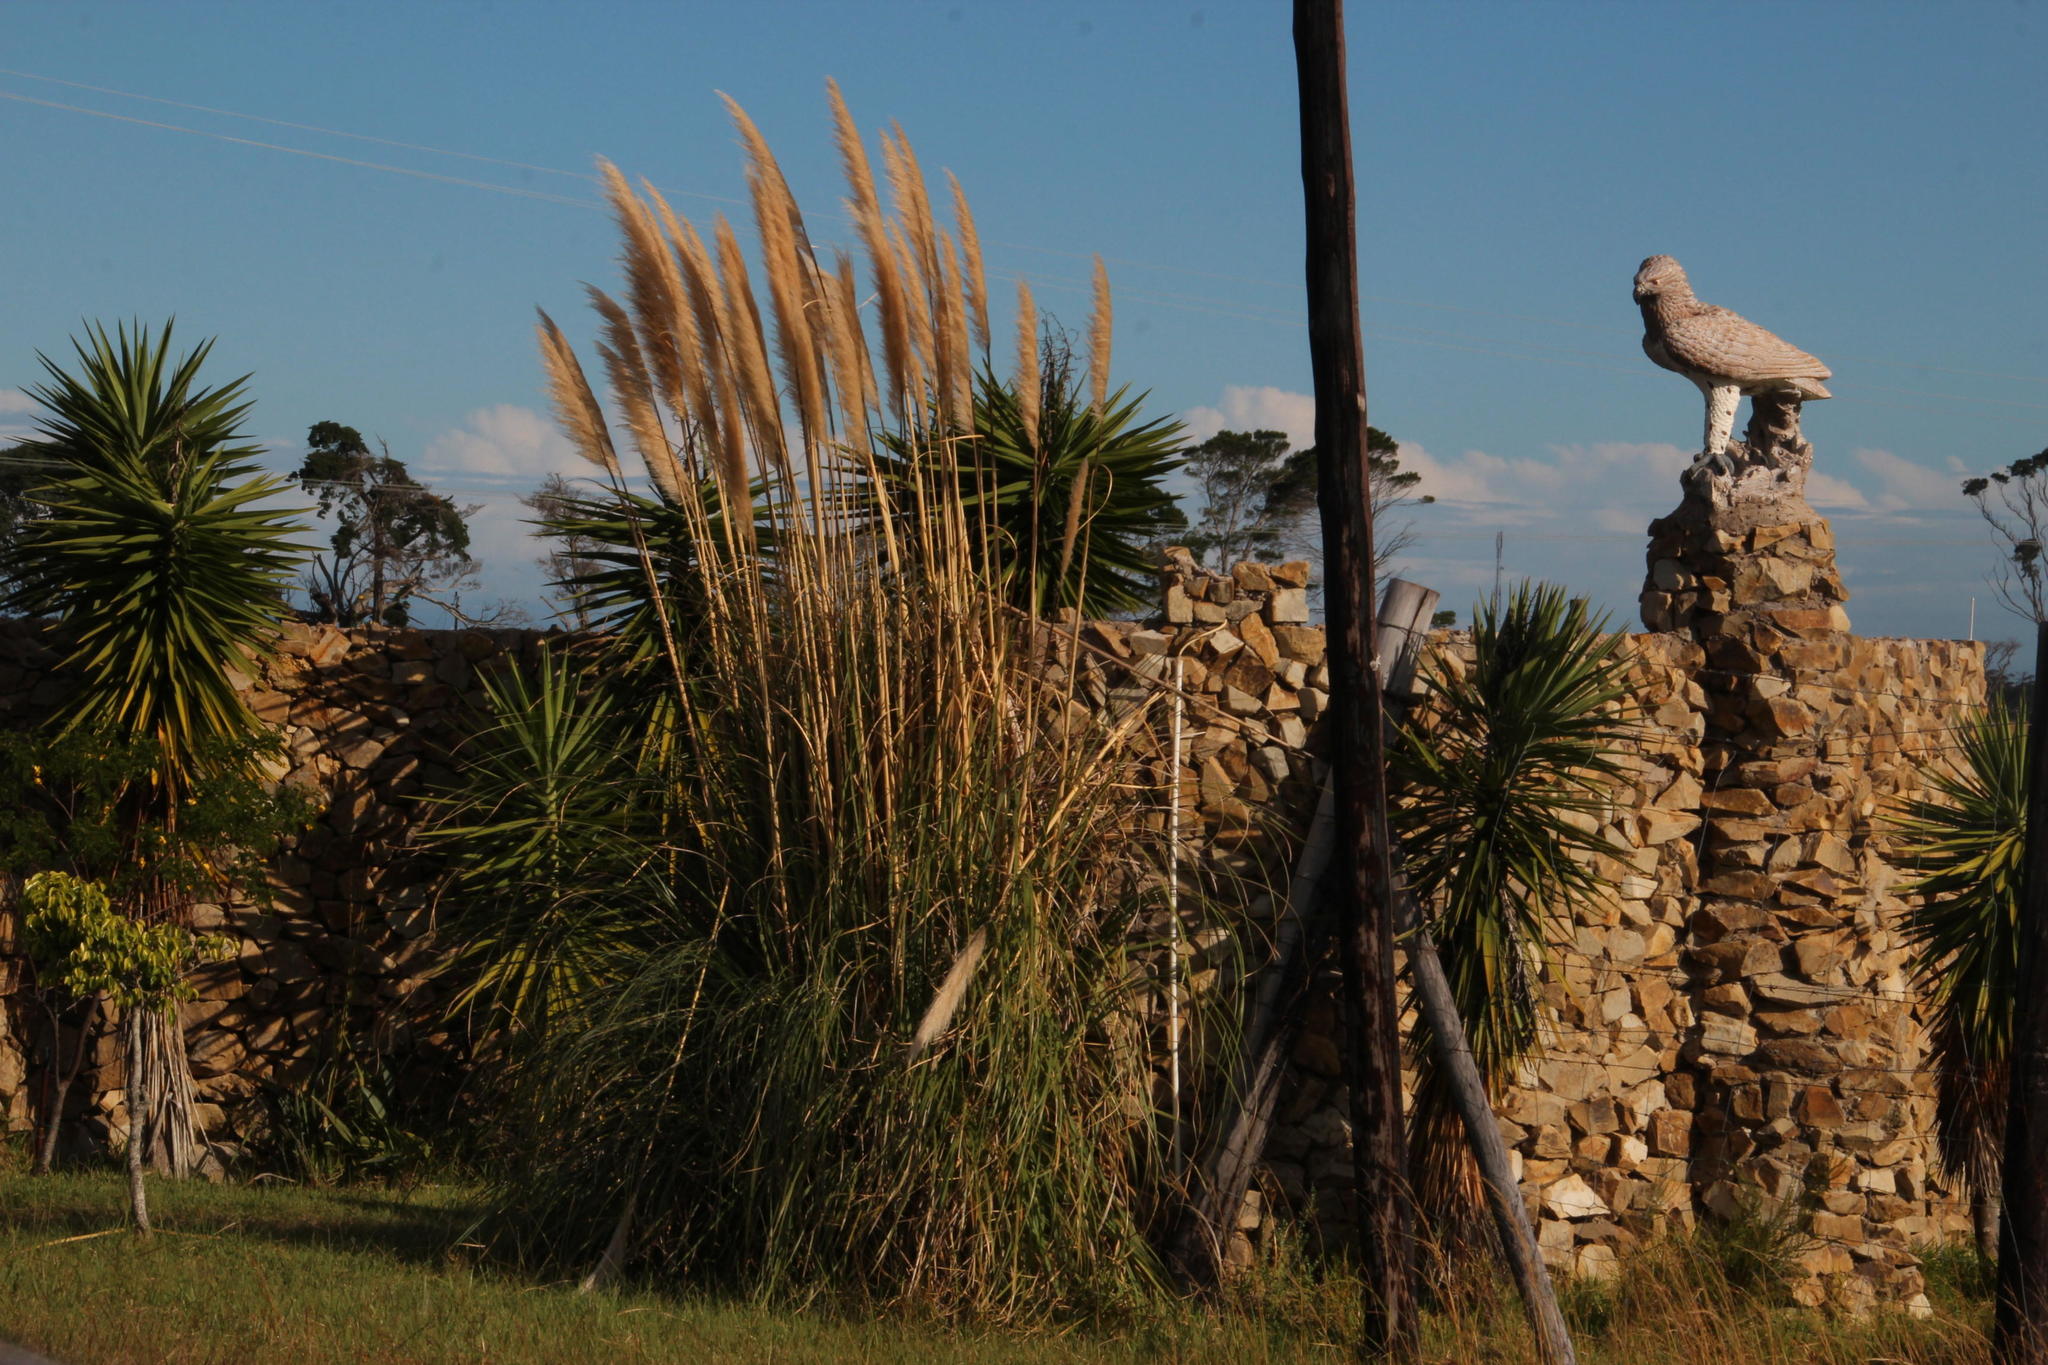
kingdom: Plantae
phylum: Tracheophyta
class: Liliopsida
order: Poales
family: Poaceae
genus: Cortaderia
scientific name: Cortaderia selloana
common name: Uruguayan pampas grass
